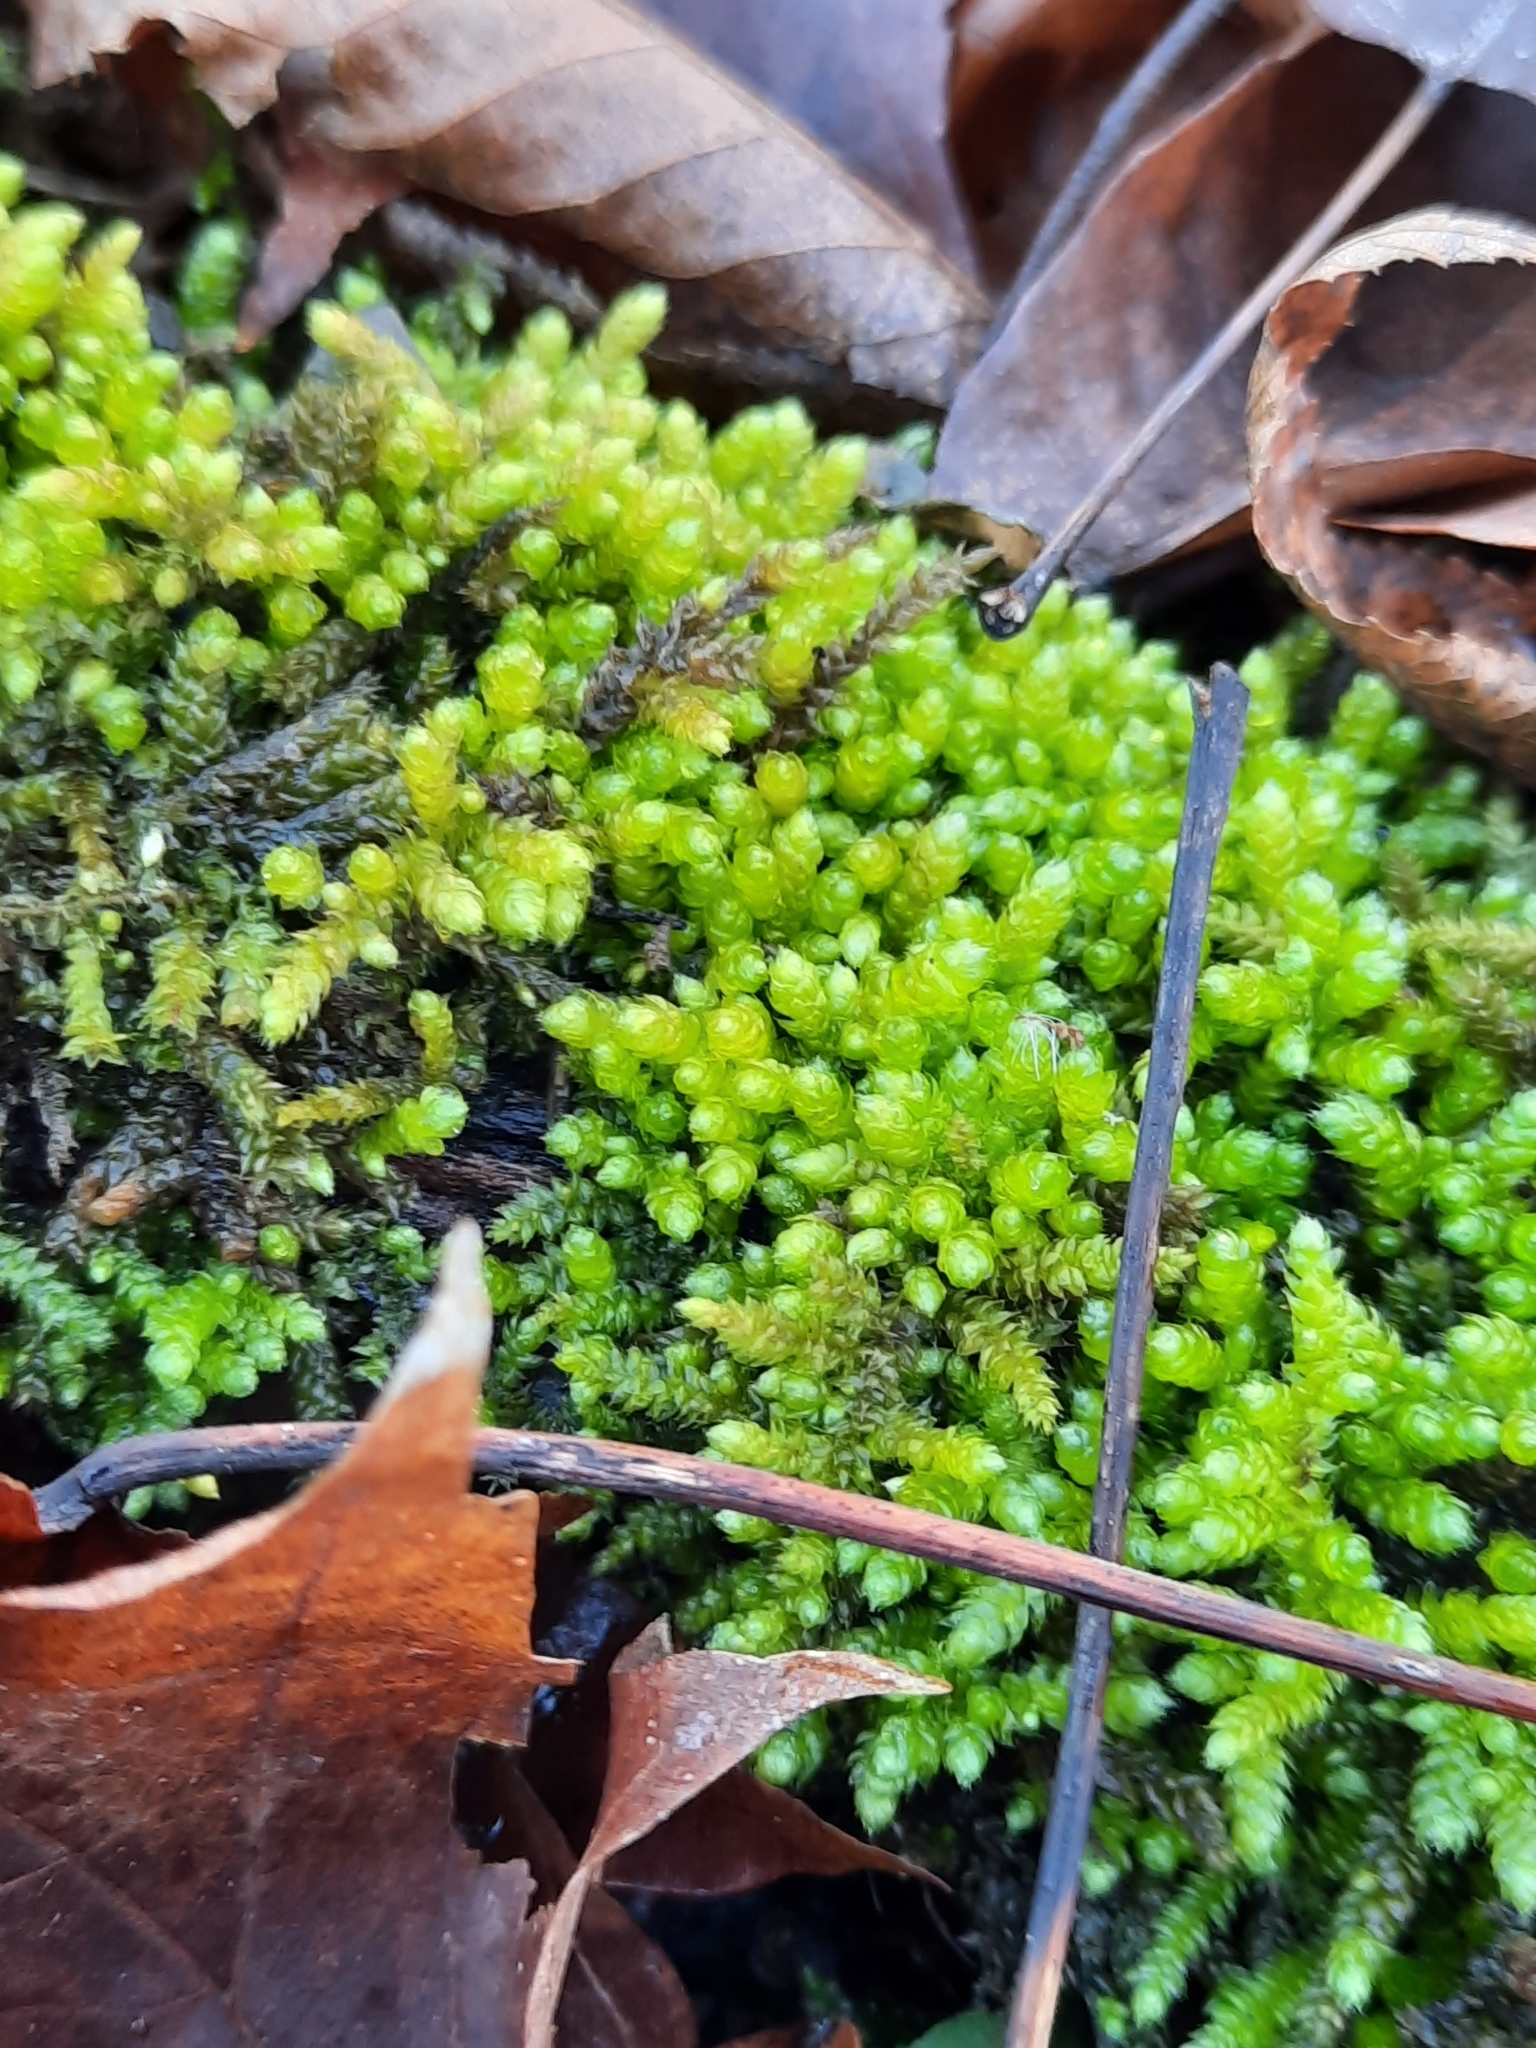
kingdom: Plantae
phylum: Bryophyta
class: Bryopsida
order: Hypnales
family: Brachytheciaceae
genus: Bryoandersonia
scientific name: Bryoandersonia illecebra
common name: Spoon-leaved moss
